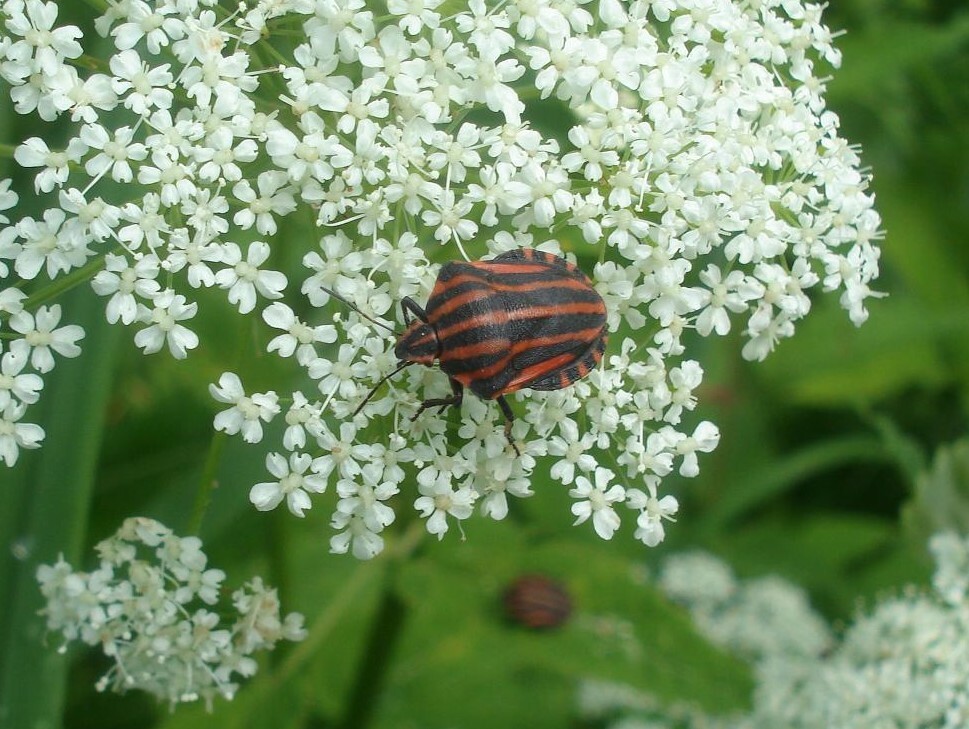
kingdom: Animalia
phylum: Arthropoda
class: Insecta
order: Hemiptera
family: Pentatomidae
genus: Graphosoma
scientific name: Graphosoma italicum
